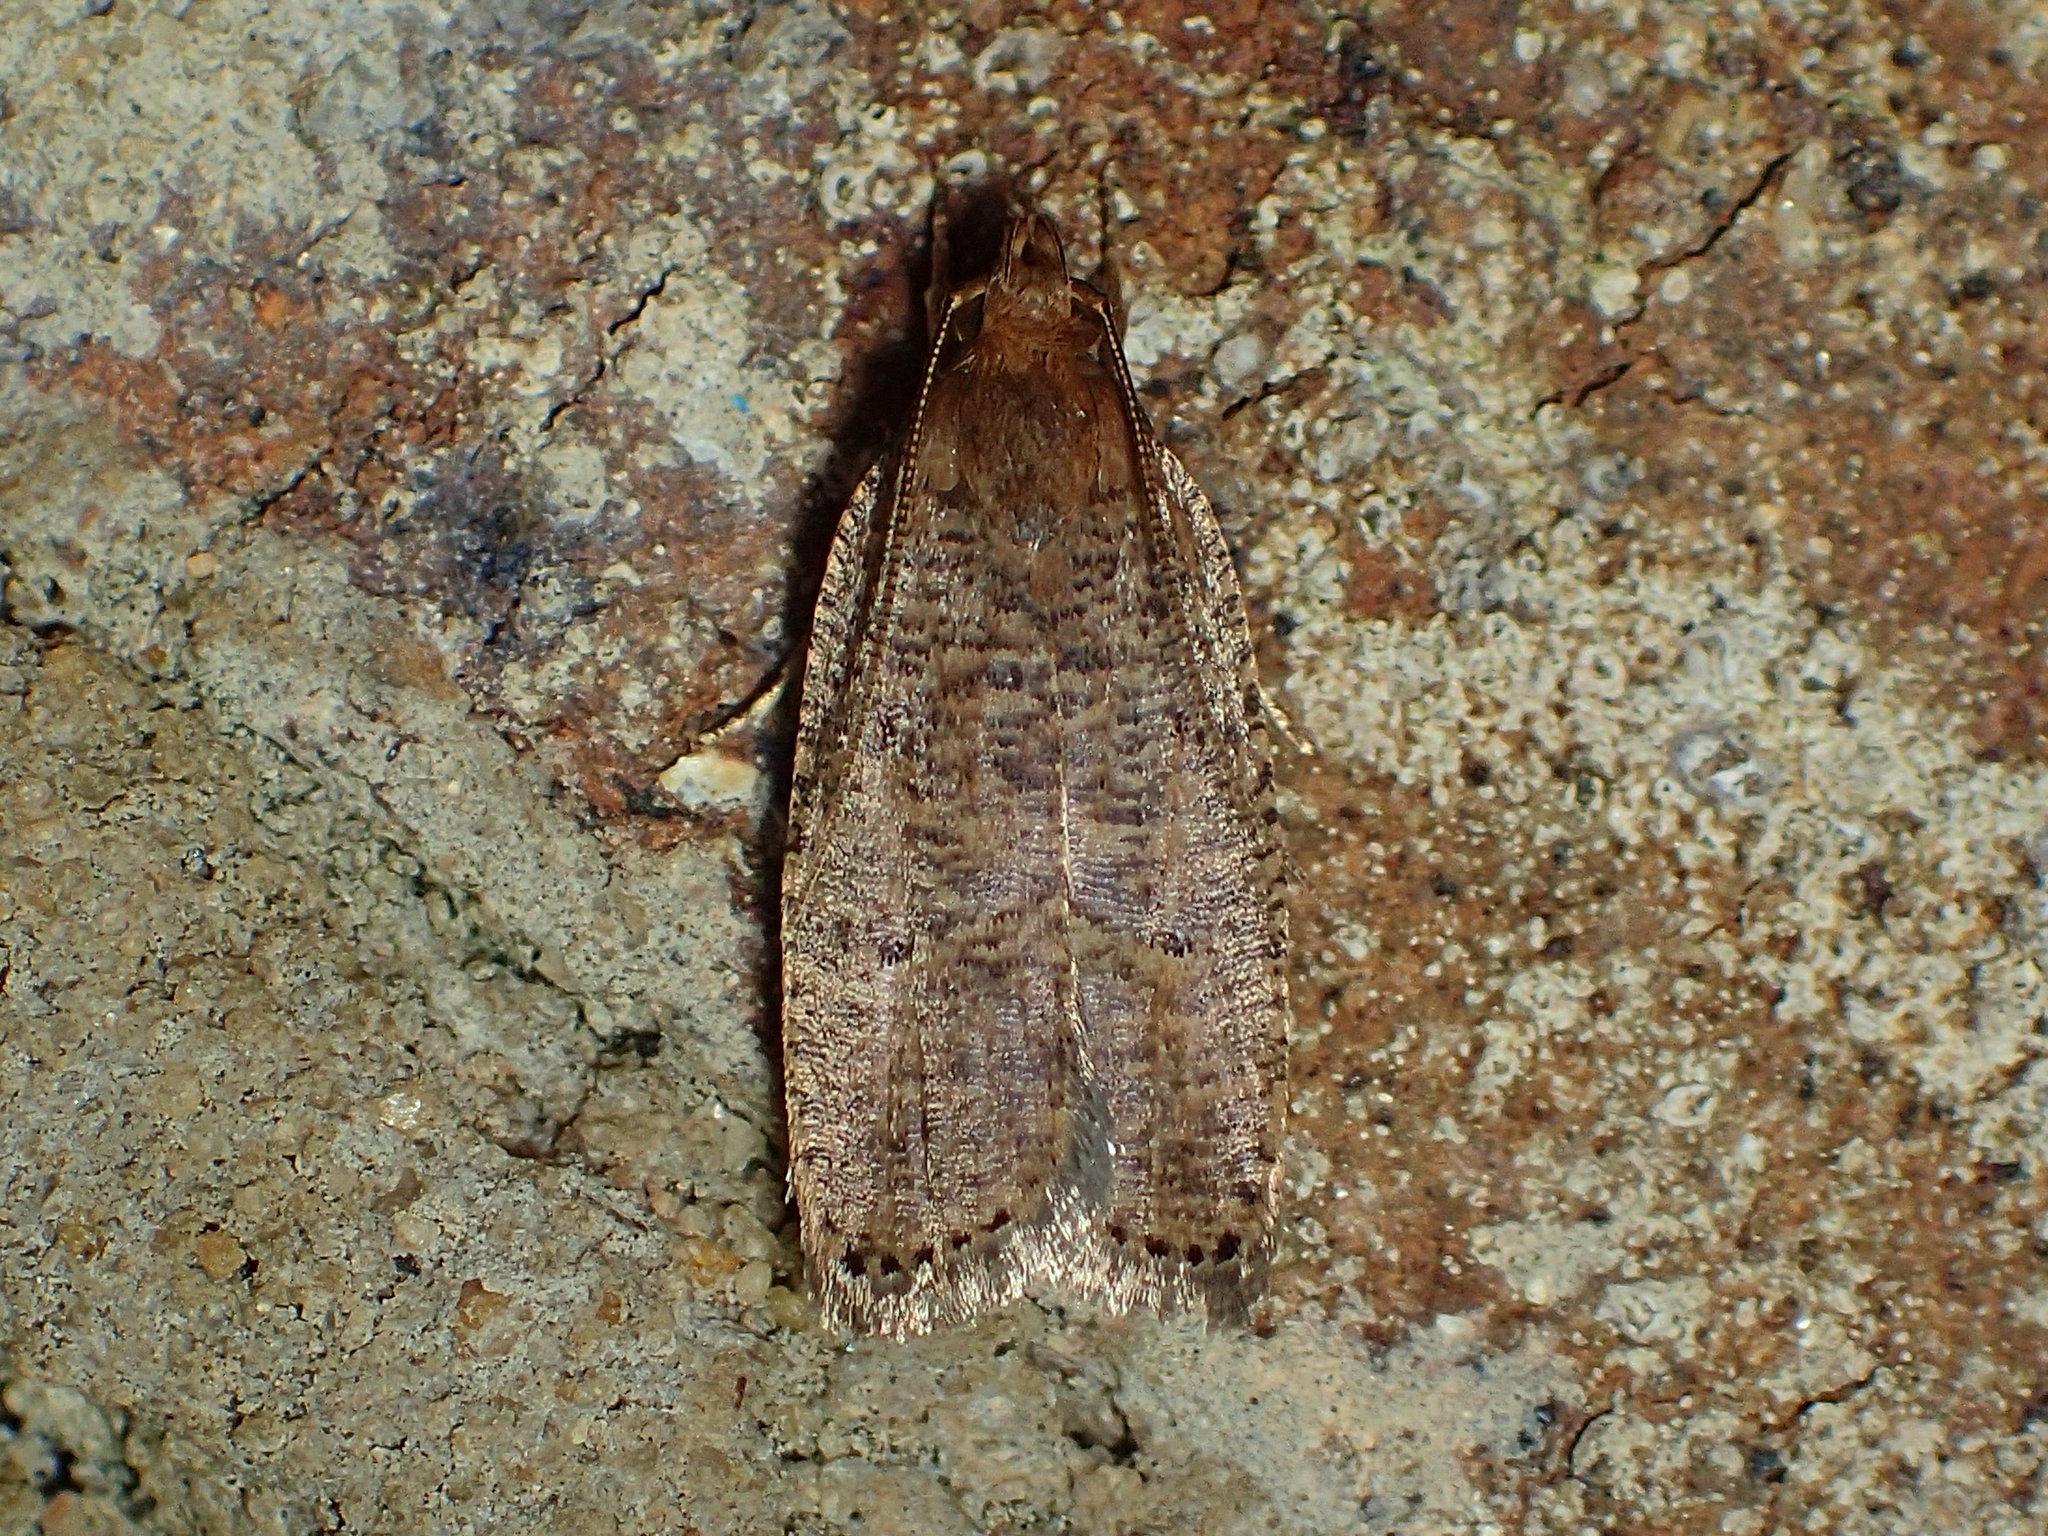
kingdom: Animalia
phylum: Arthropoda
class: Insecta
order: Lepidoptera
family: Depressariidae
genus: Psilocorsis
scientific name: Psilocorsis reflexella
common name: Dotted leaftier moth
